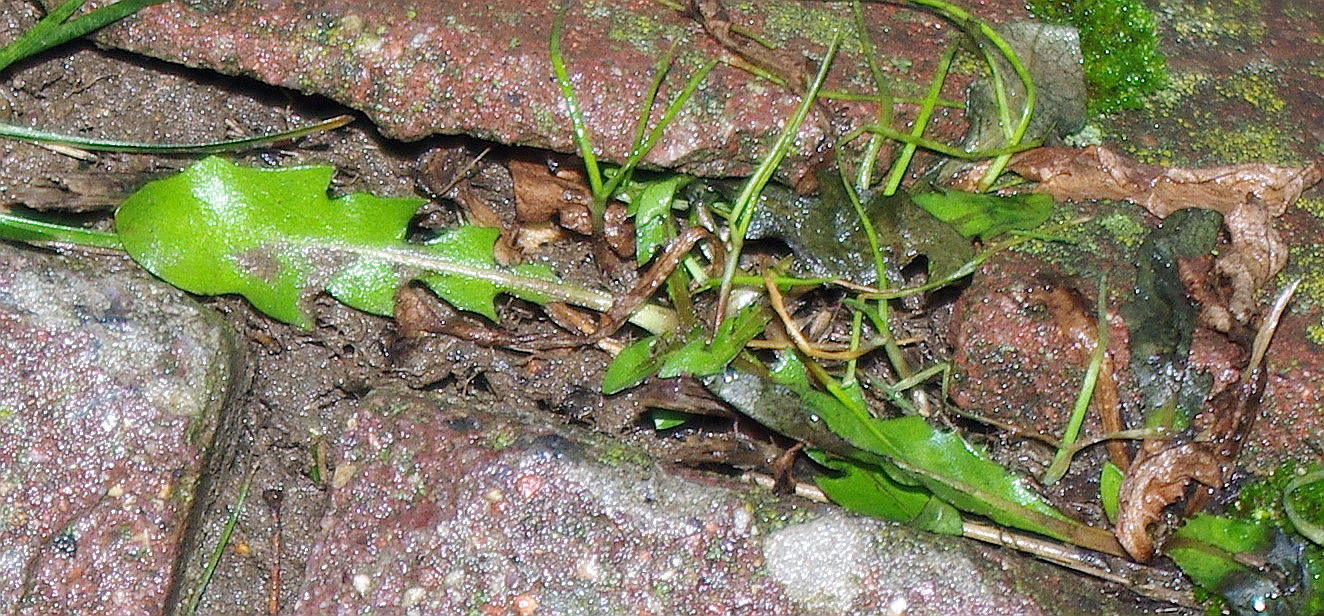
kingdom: Plantae
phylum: Tracheophyta
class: Magnoliopsida
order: Asterales
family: Asteraceae
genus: Taraxacum
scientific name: Taraxacum officinale
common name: Common dandelion
